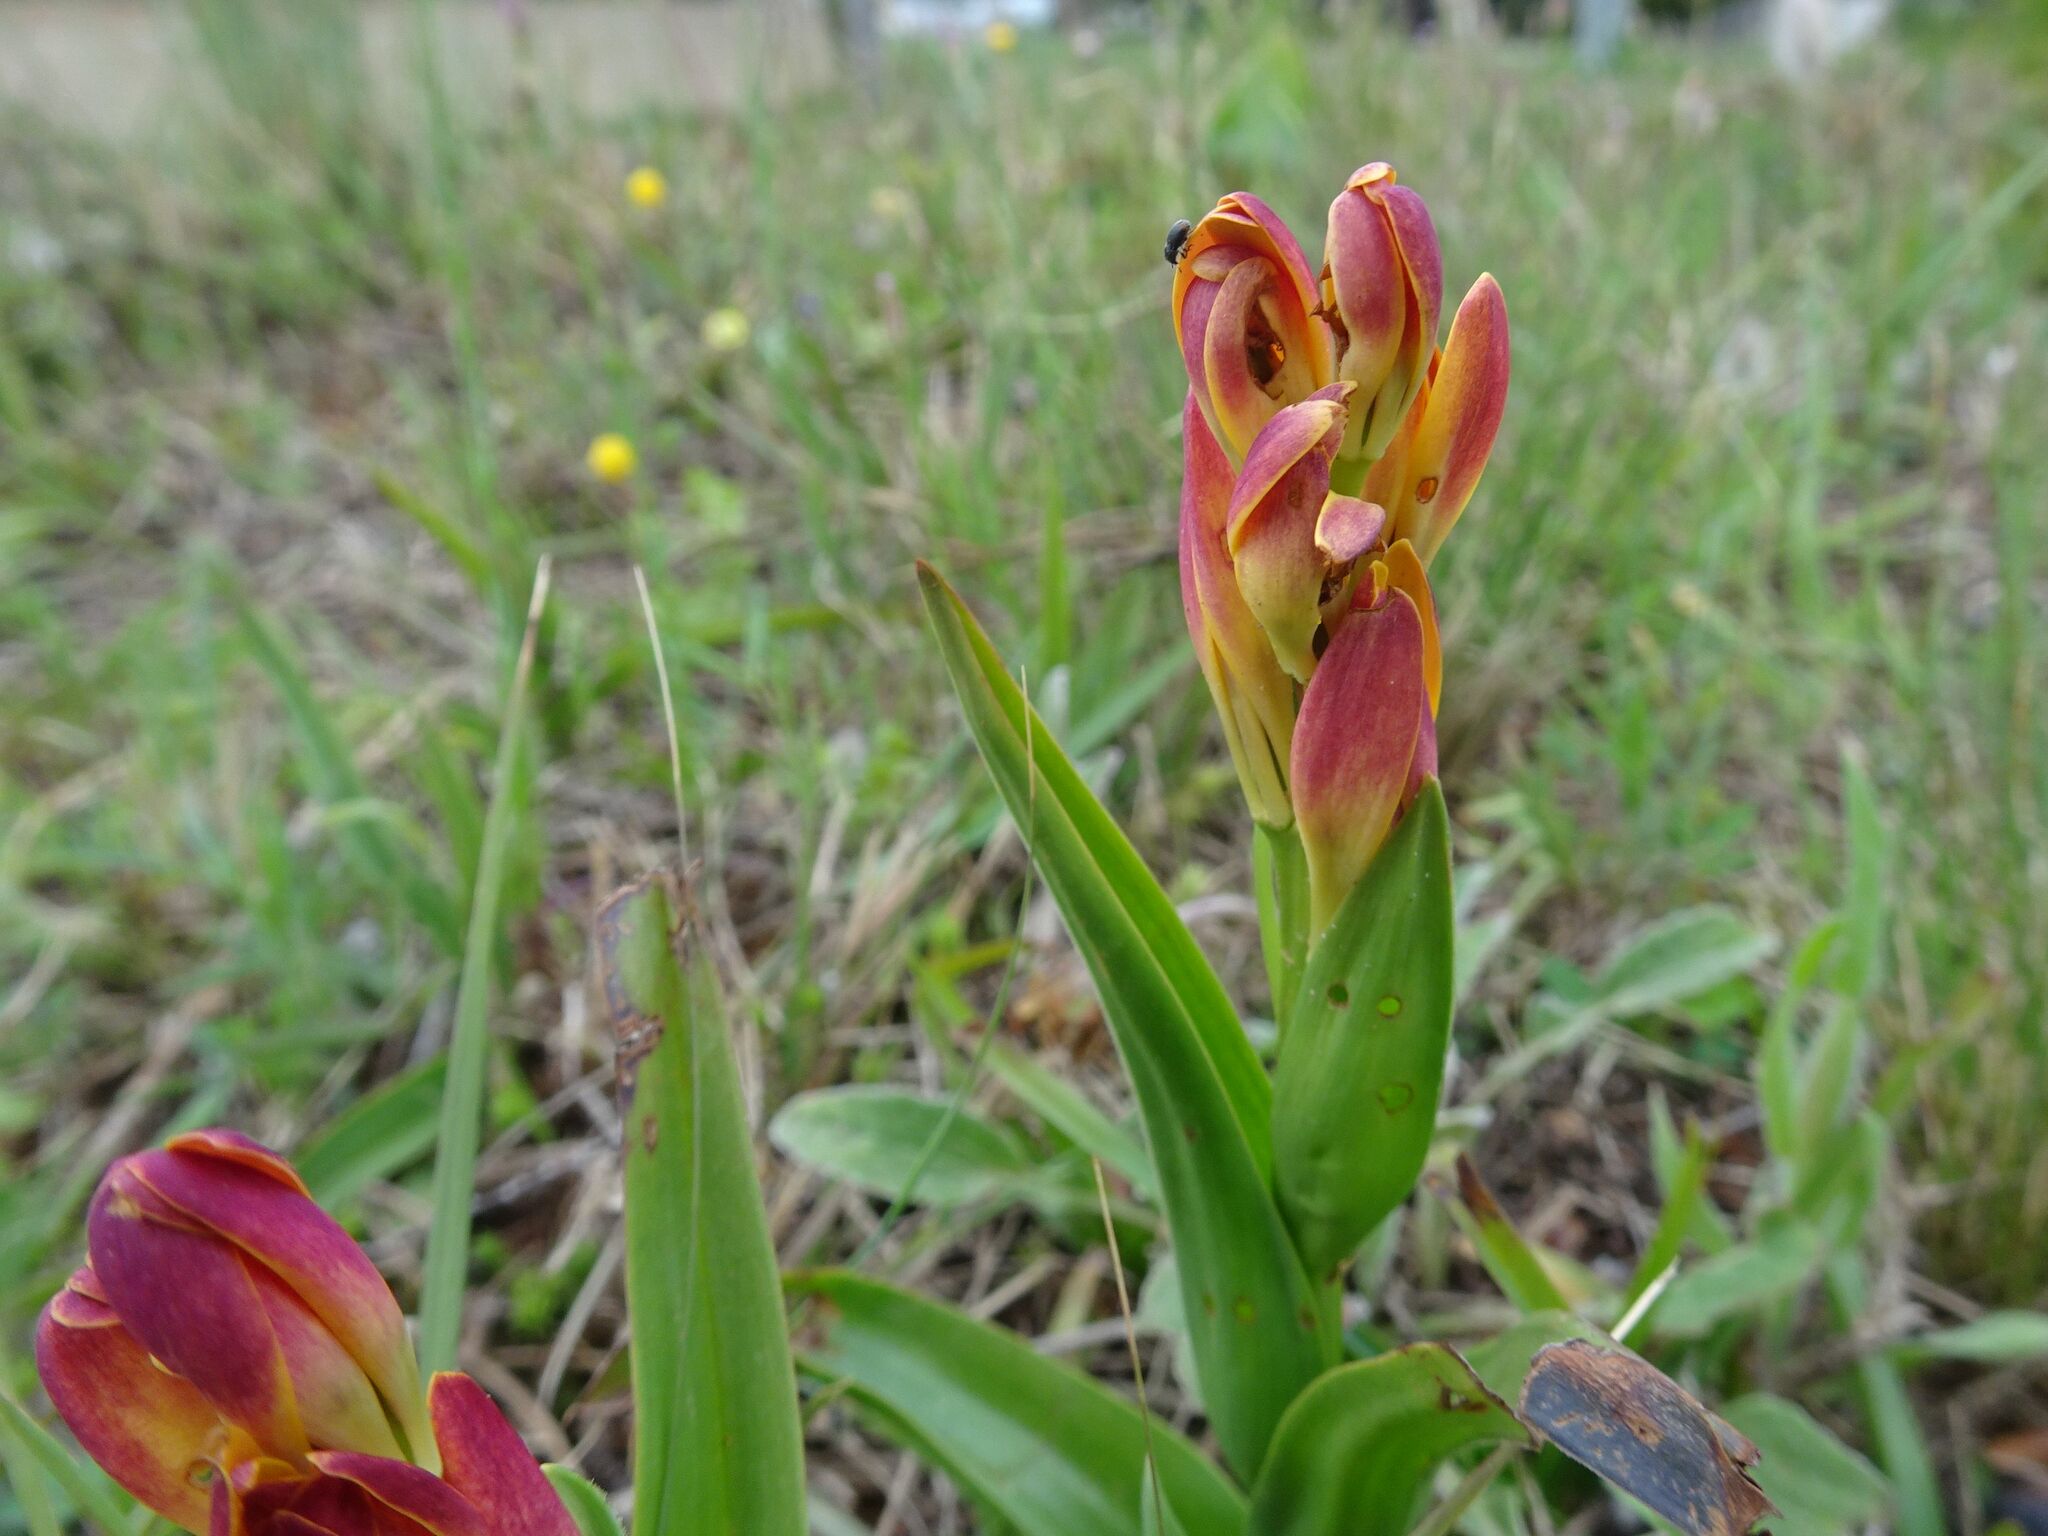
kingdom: Plantae
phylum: Tracheophyta
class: Liliopsida
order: Liliales
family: Colchicaceae
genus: Baeometra
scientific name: Baeometra uniflora
